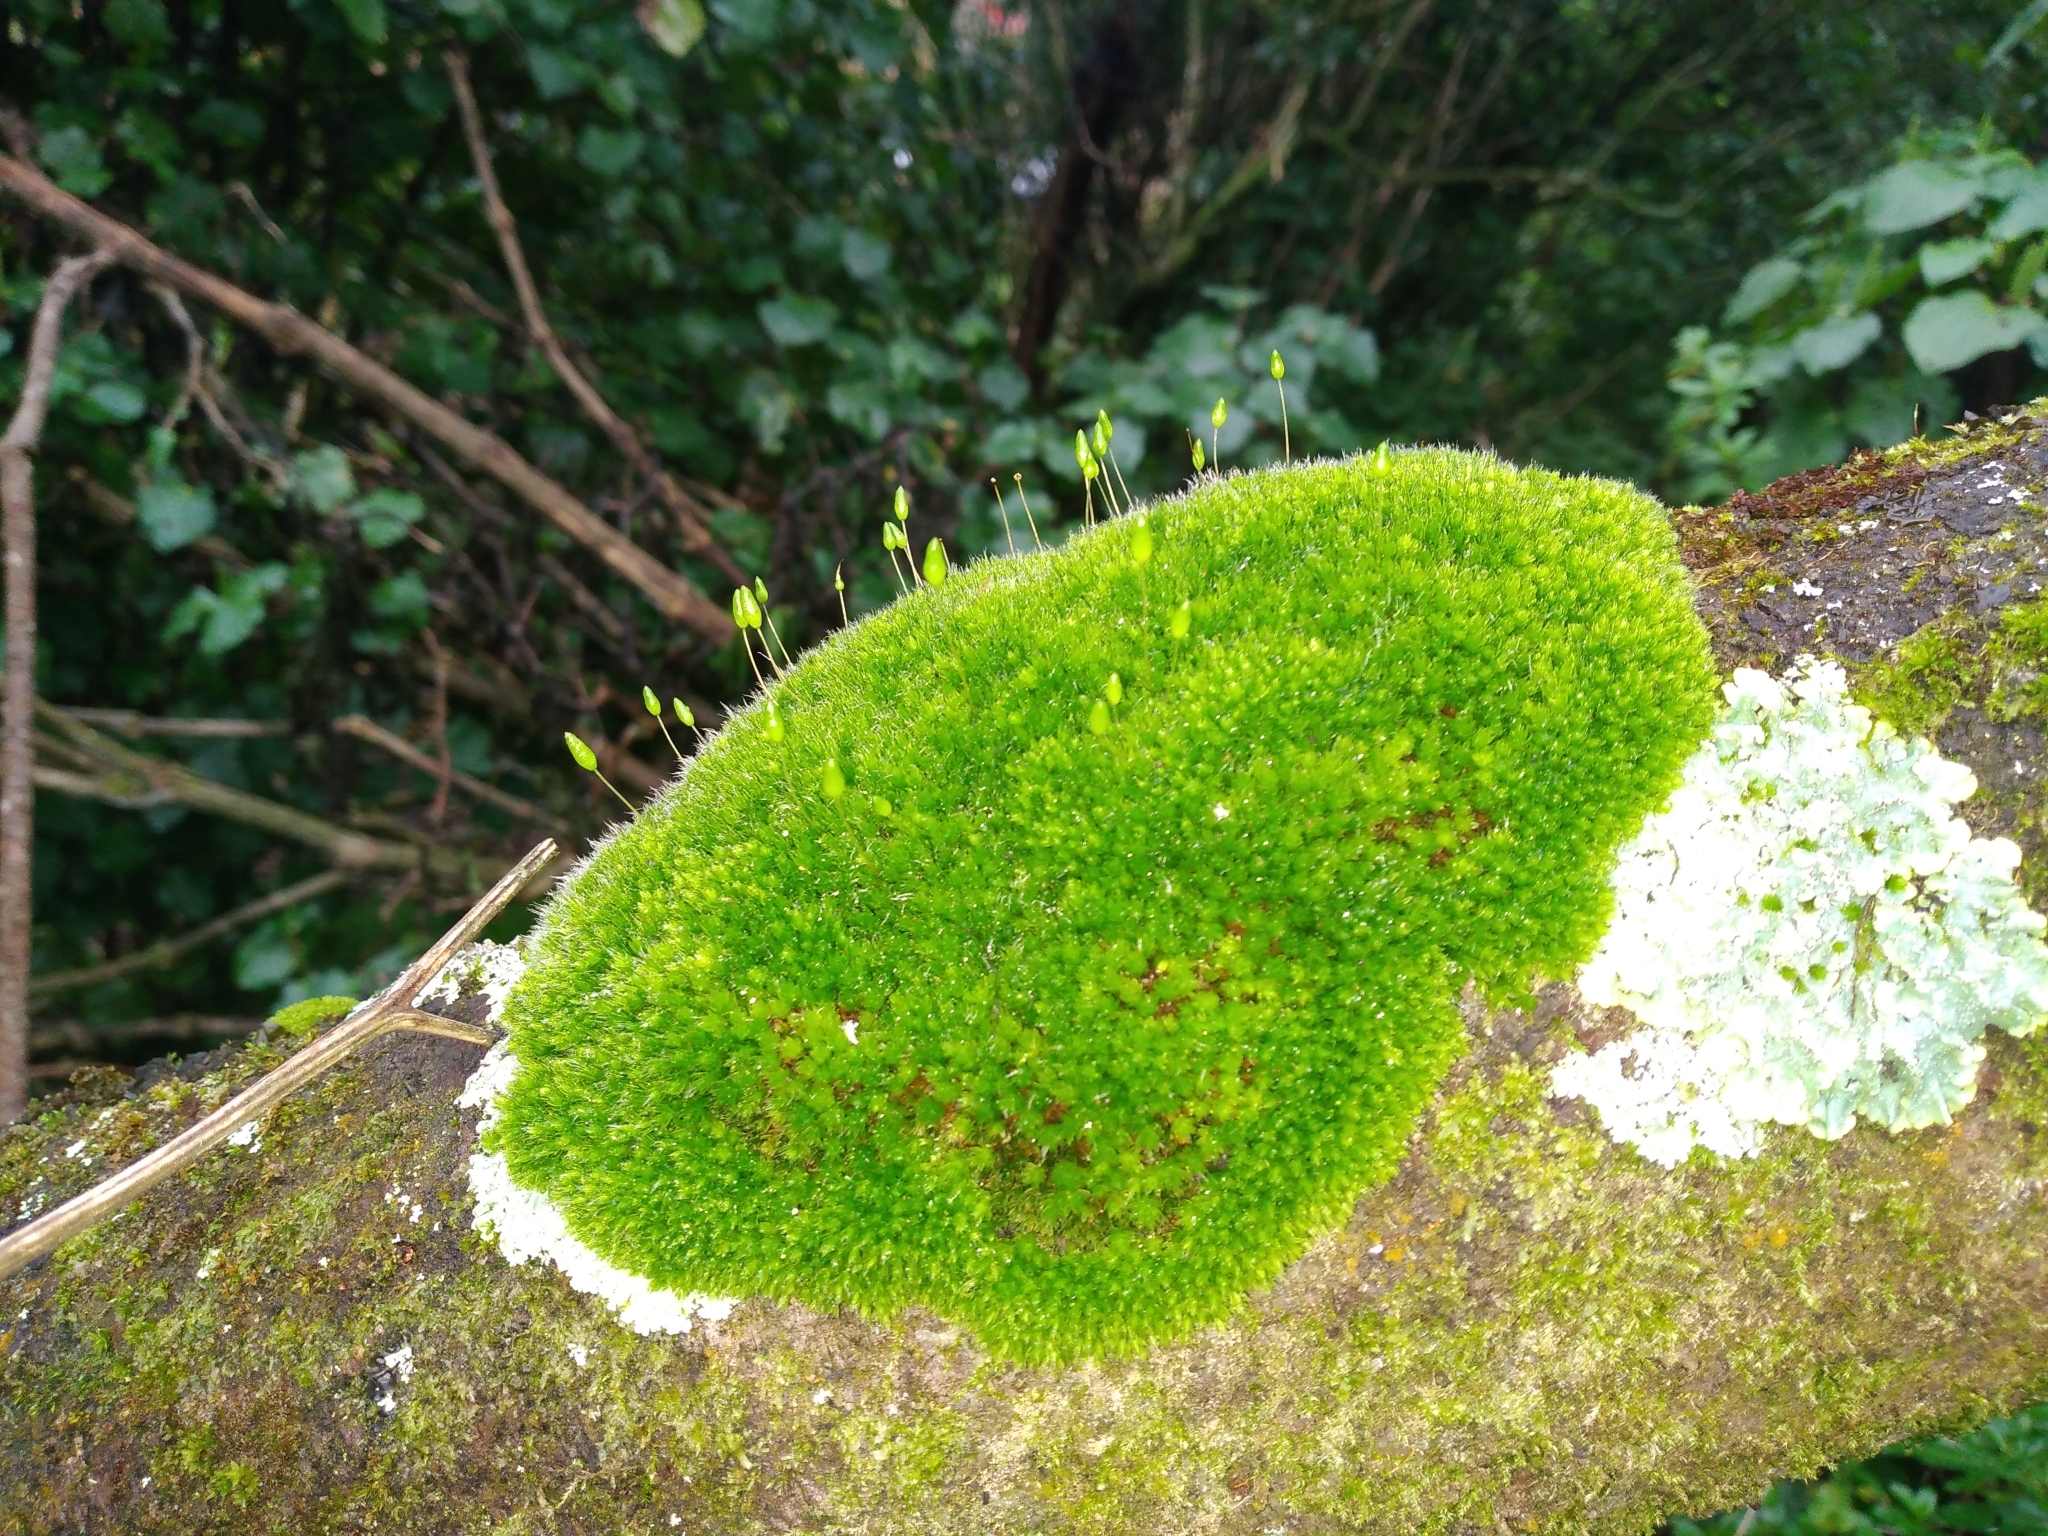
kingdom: Plantae
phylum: Bryophyta
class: Bryopsida
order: Bryales
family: Leptostomataceae
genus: Leptostomum
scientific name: Leptostomum macrocarpon
